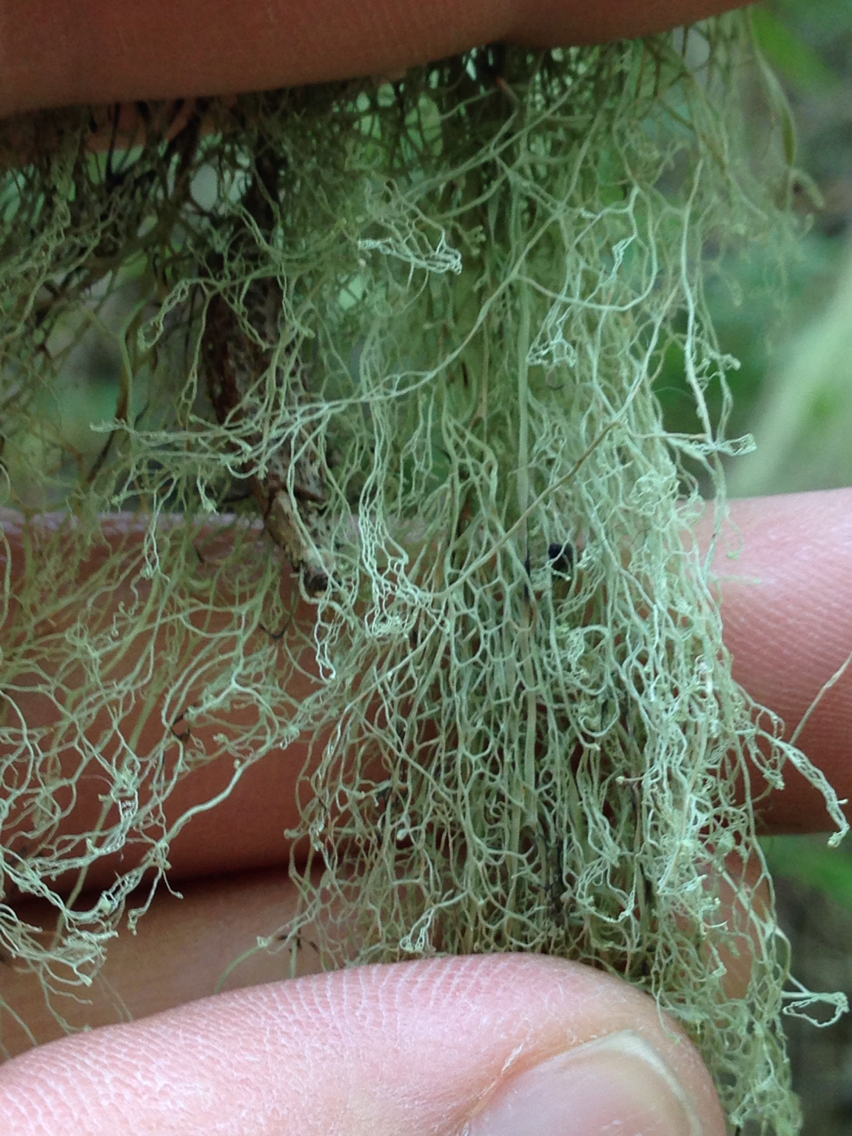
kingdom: Fungi
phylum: Ascomycota
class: Lecanoromycetes
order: Lecanorales
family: Ramalinaceae
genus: Ramalina
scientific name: Ramalina menziesii
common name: Lace lichen
